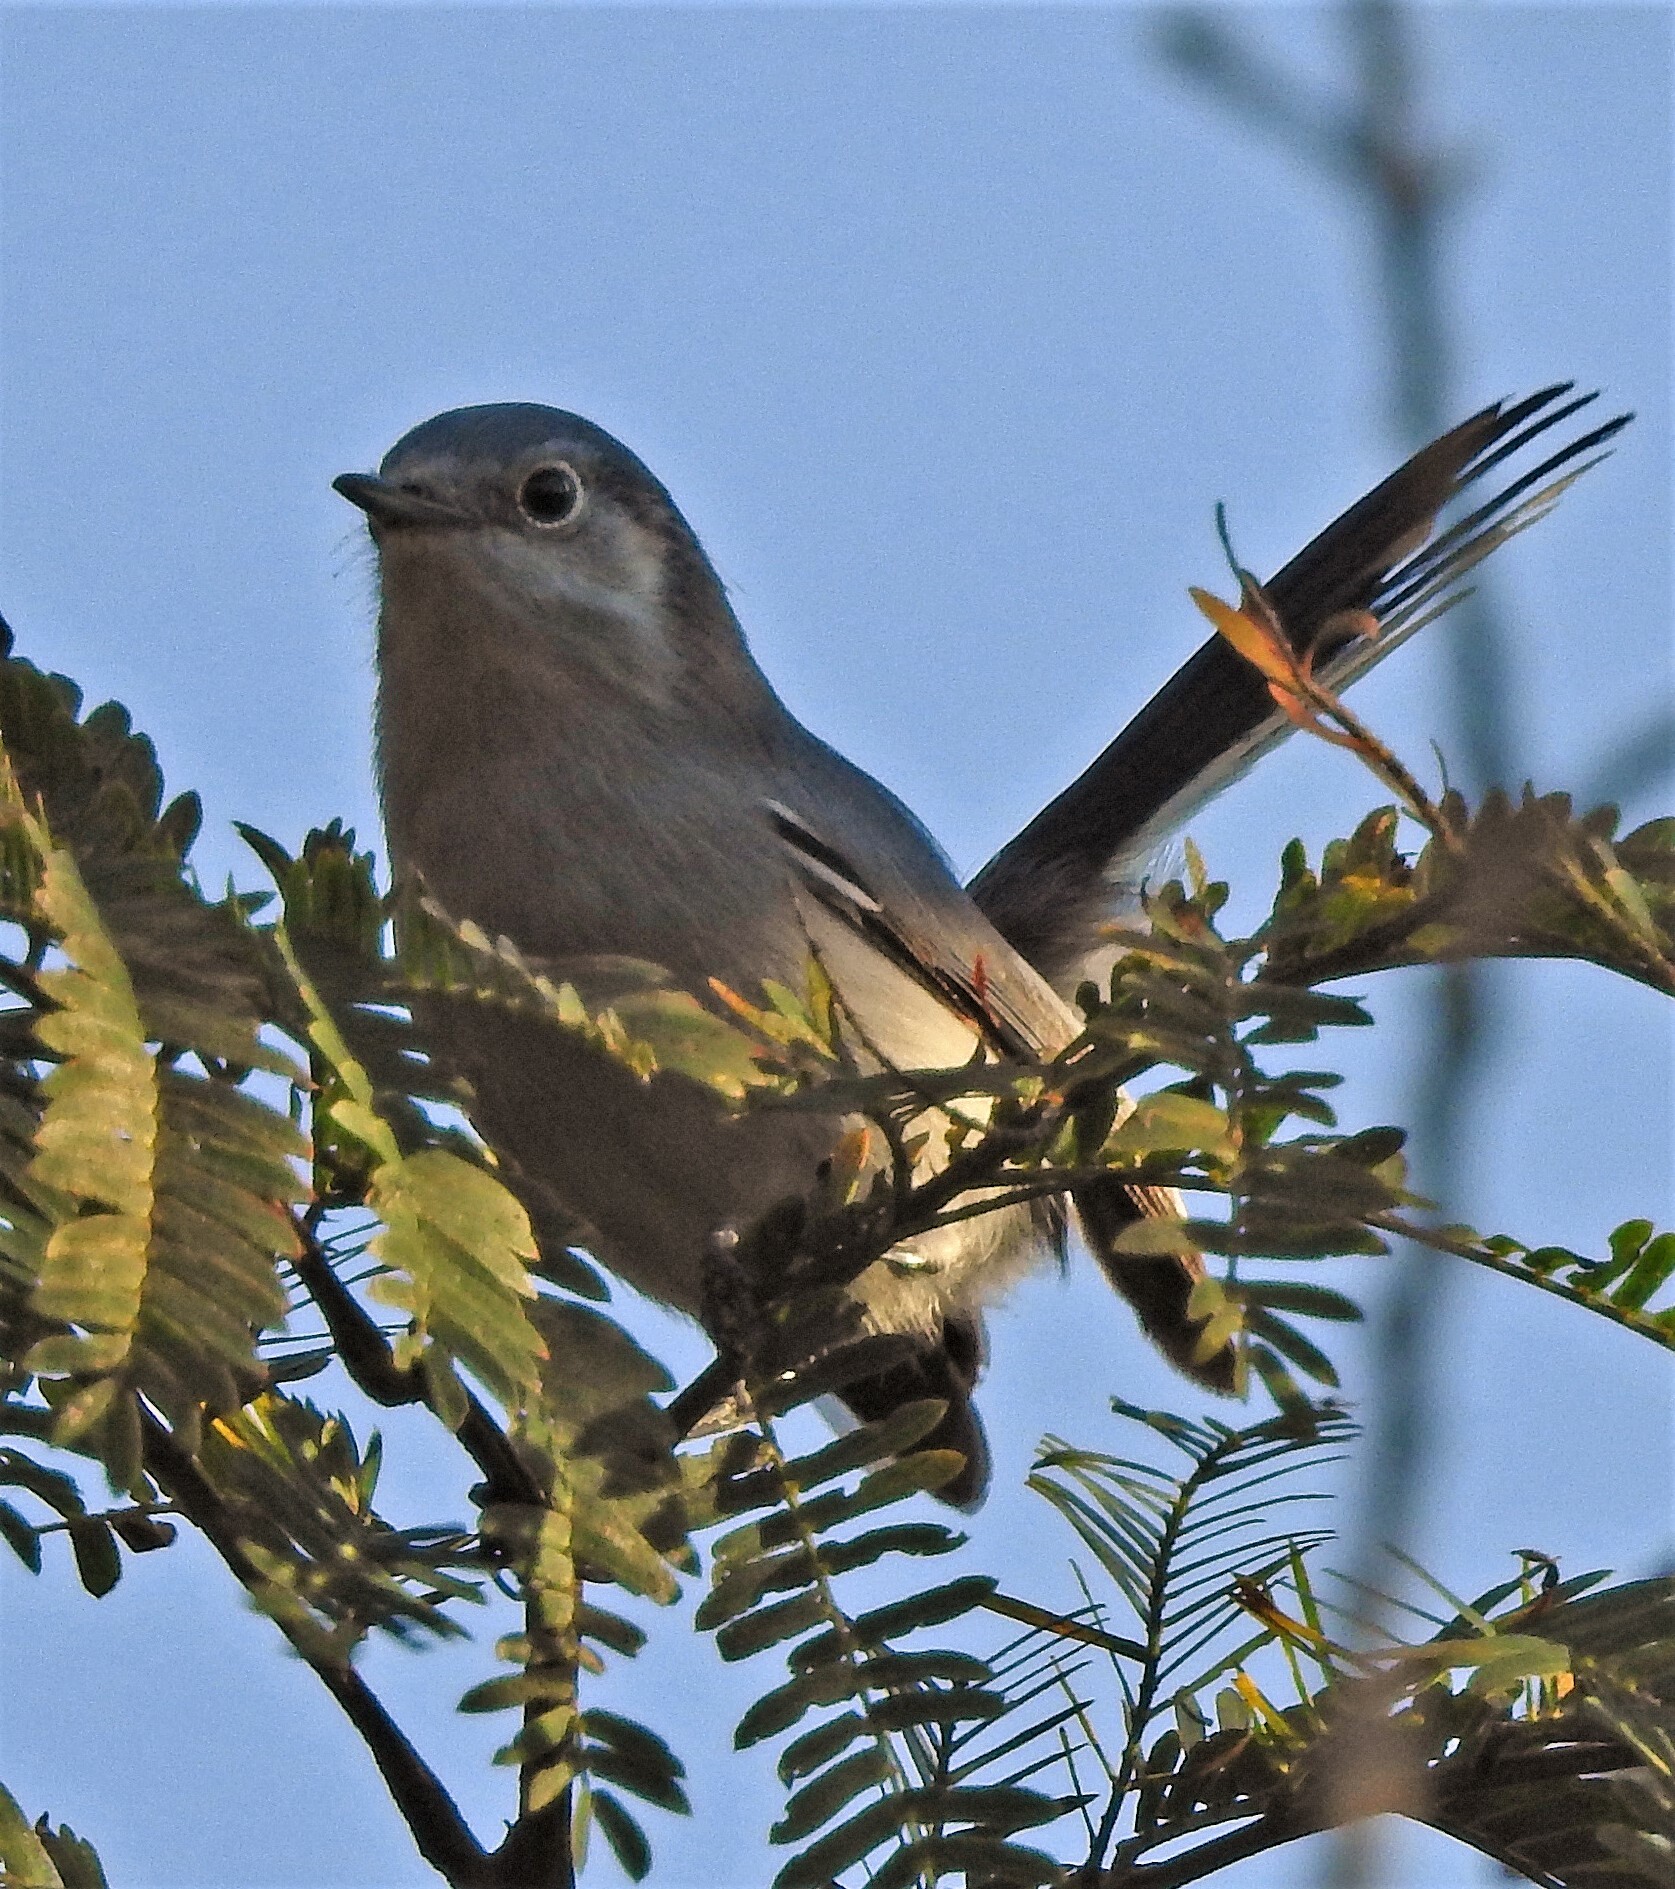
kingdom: Animalia
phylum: Chordata
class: Aves
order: Passeriformes
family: Polioptilidae
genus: Polioptila
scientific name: Polioptila dumicola
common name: Masked gnatcatcher
